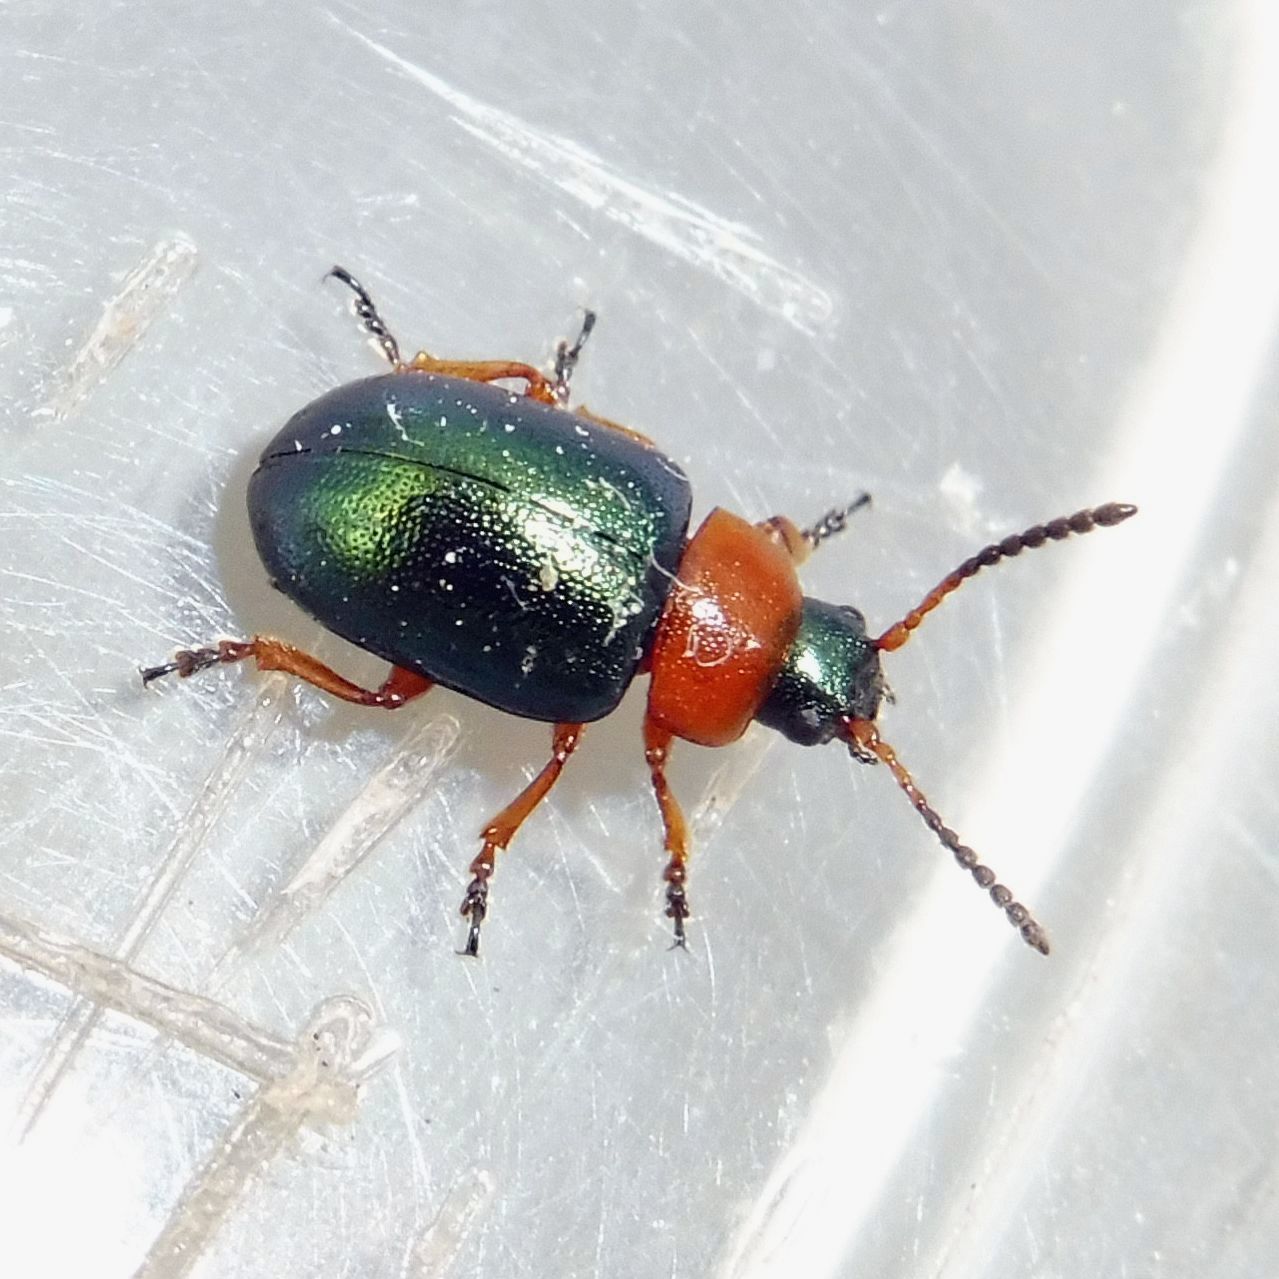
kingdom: Animalia
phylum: Arthropoda
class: Insecta
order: Coleoptera
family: Chrysomelidae
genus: Gastrophysa
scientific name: Gastrophysa polygoni
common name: Knotweed leaf beetle
